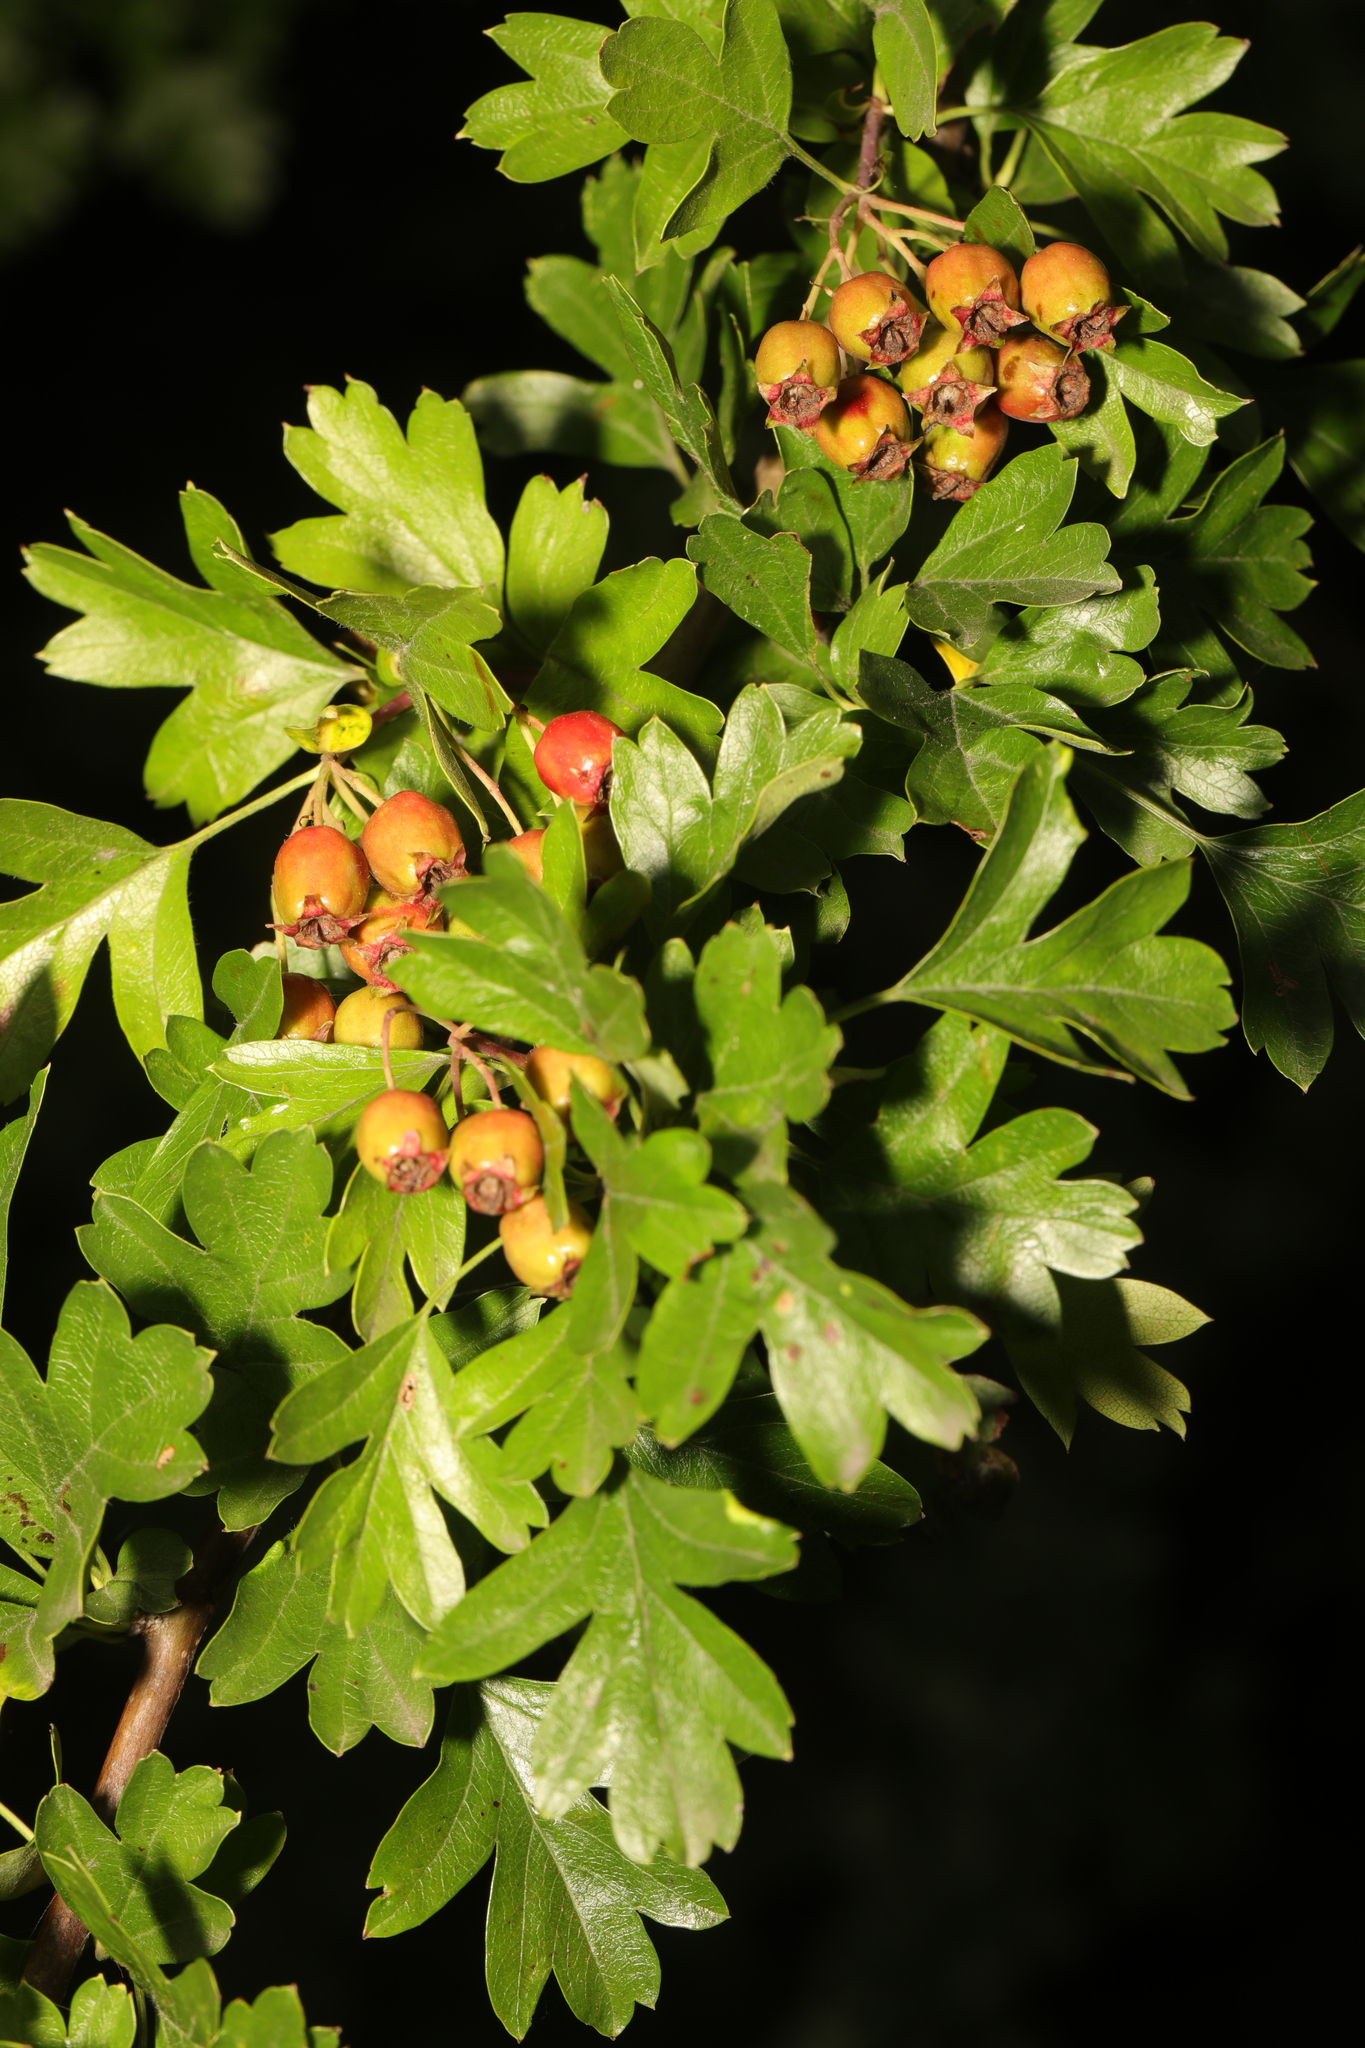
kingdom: Plantae
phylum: Tracheophyta
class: Magnoliopsida
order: Rosales
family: Rosaceae
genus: Crataegus
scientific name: Crataegus monogyna
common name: Hawthorn
